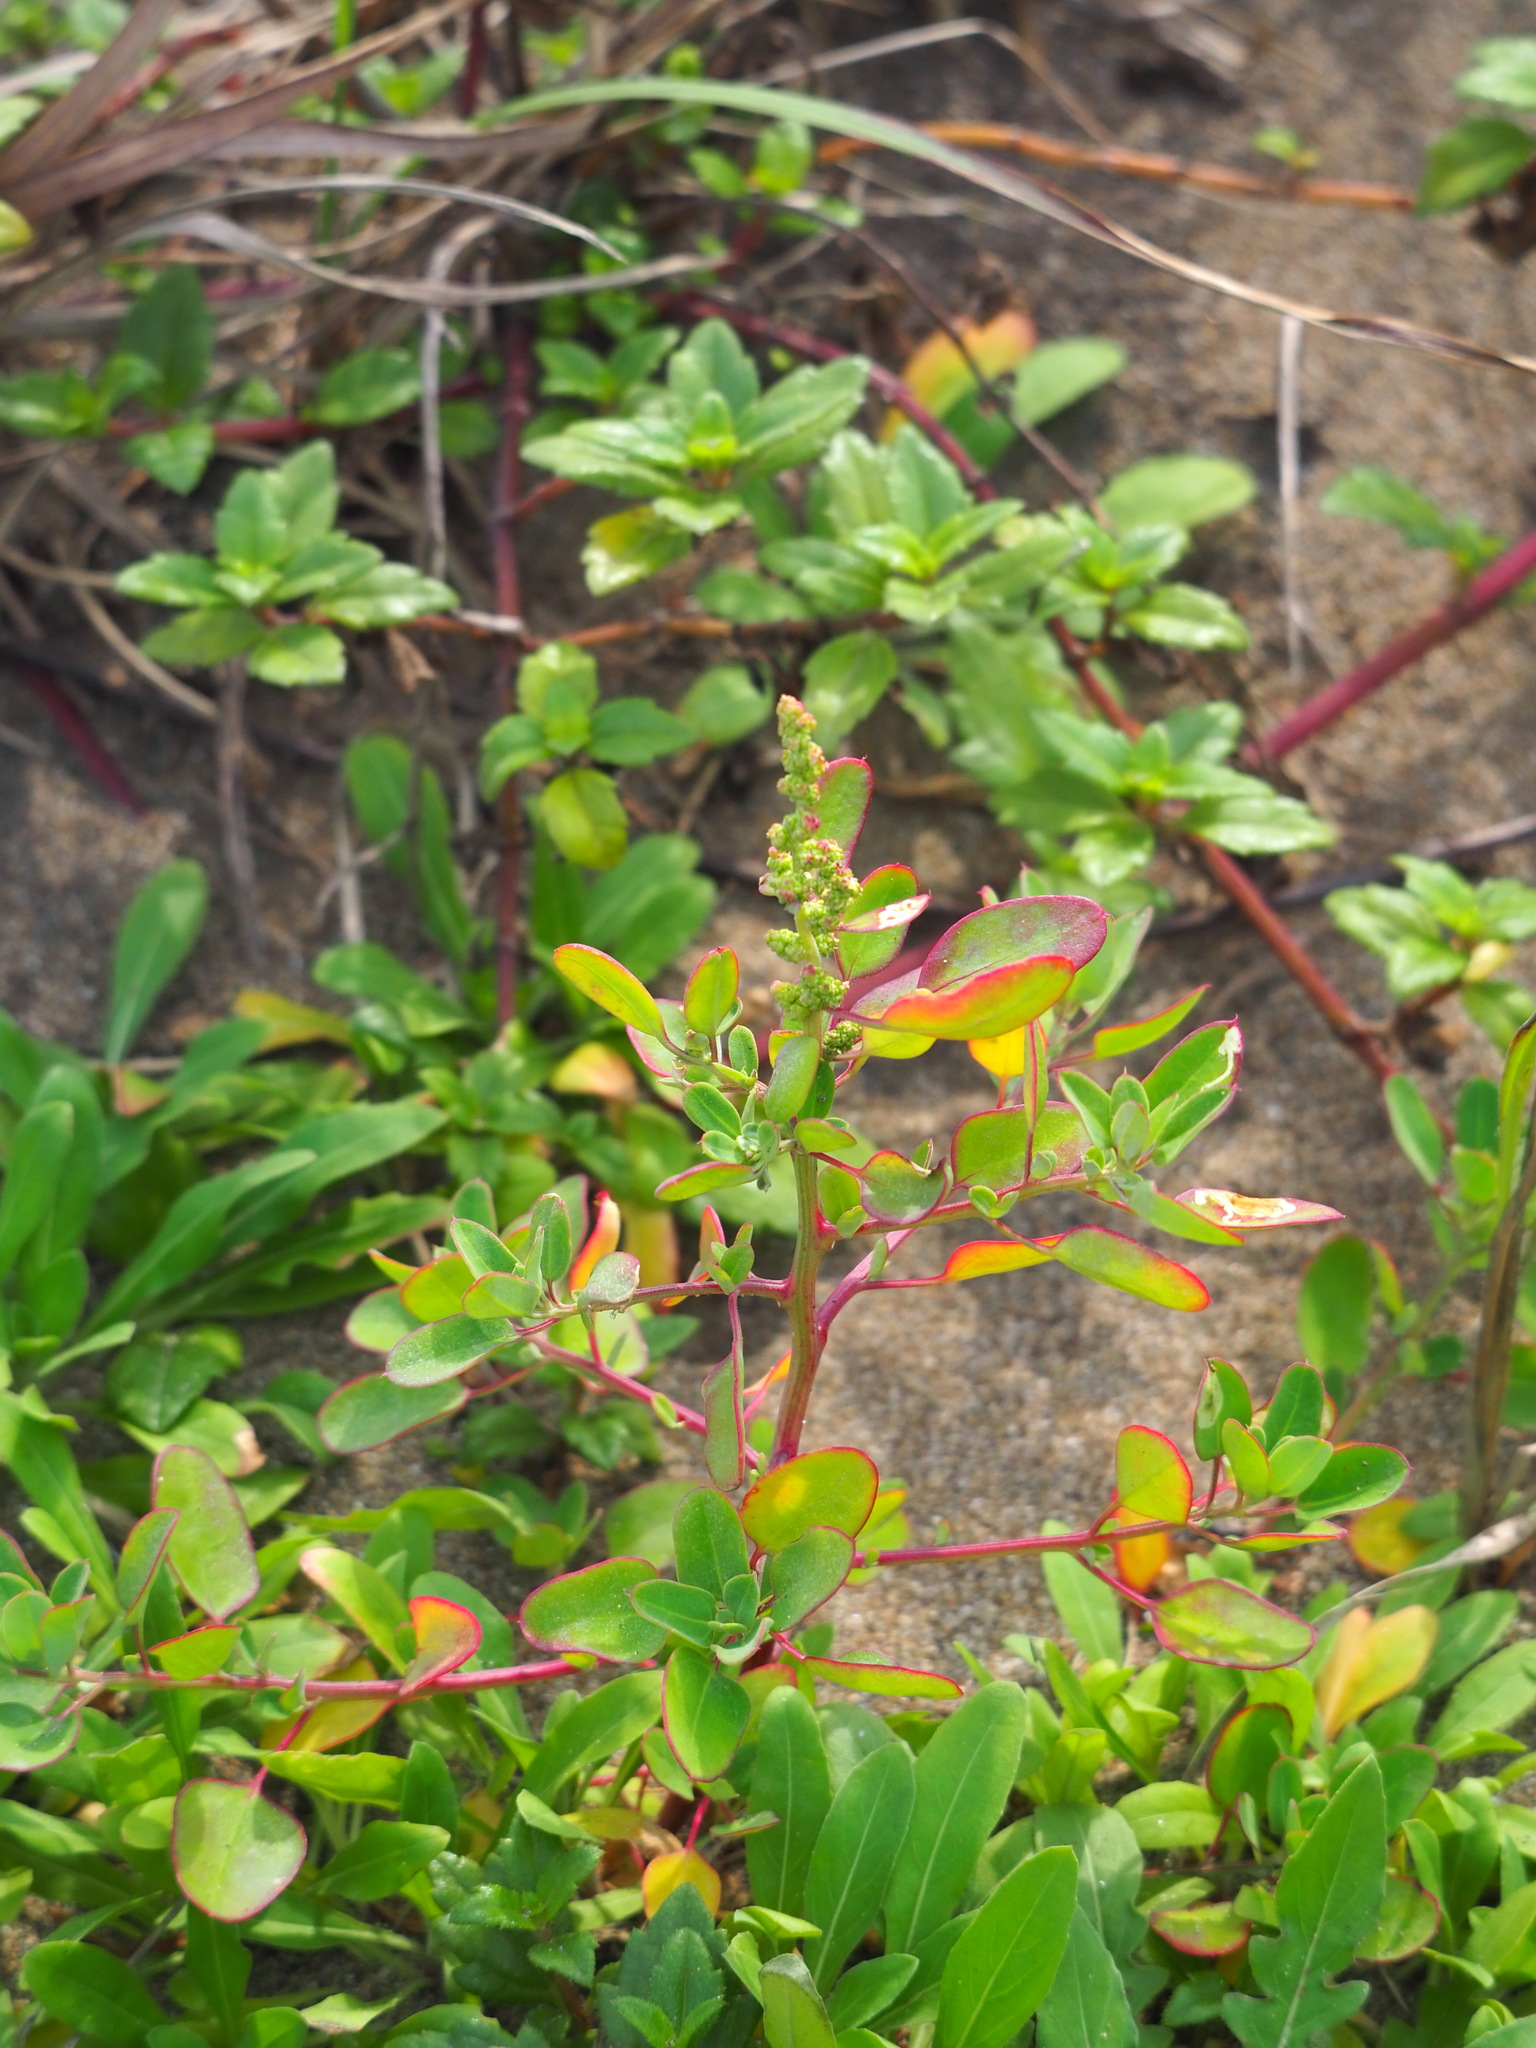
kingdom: Plantae
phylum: Tracheophyta
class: Magnoliopsida
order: Caryophyllales
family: Amaranthaceae
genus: Chenopodium
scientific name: Chenopodium acuminatum
